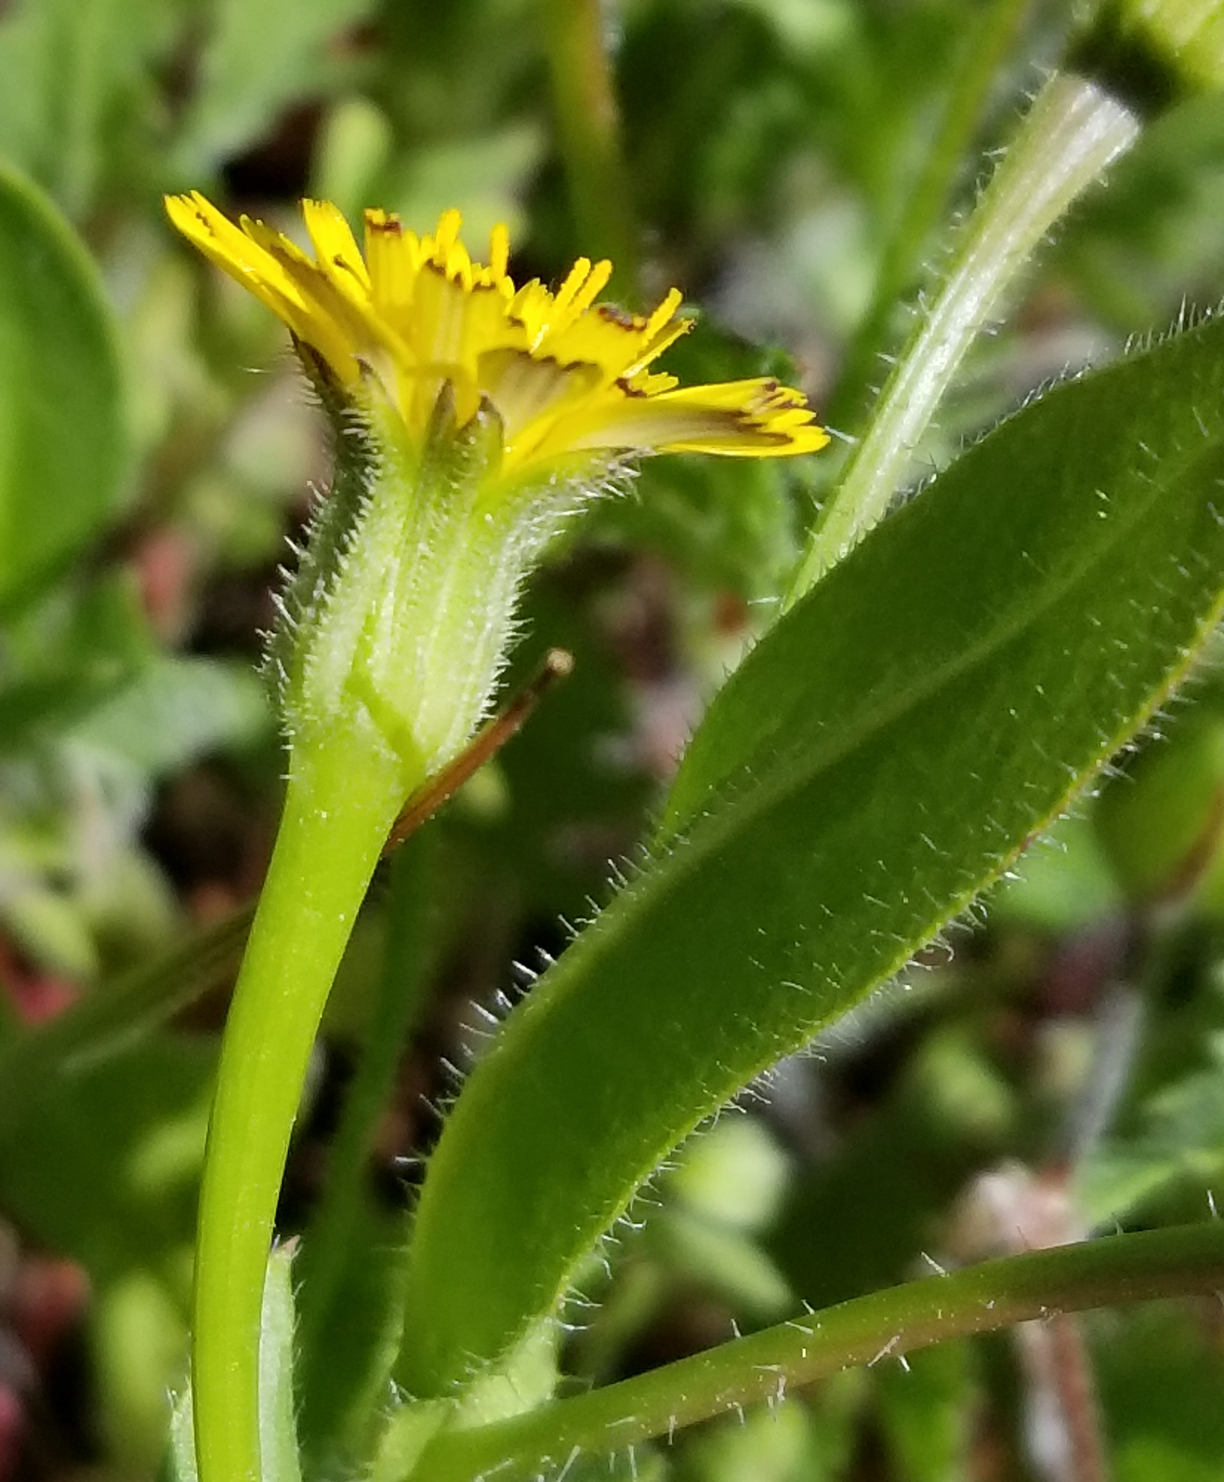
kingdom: Plantae
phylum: Tracheophyta
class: Magnoliopsida
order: Asterales
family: Asteraceae
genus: Hedypnois
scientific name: Hedypnois rhagadioloides
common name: Cretan weed
